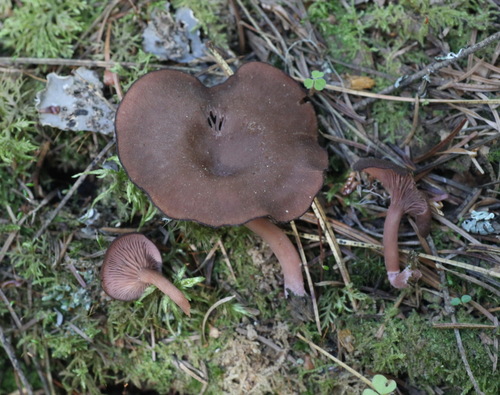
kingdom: Fungi
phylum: Basidiomycota
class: Agaricomycetes
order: Agaricales
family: Hygrophoraceae
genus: Arrhenia
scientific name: Arrhenia discorosea
